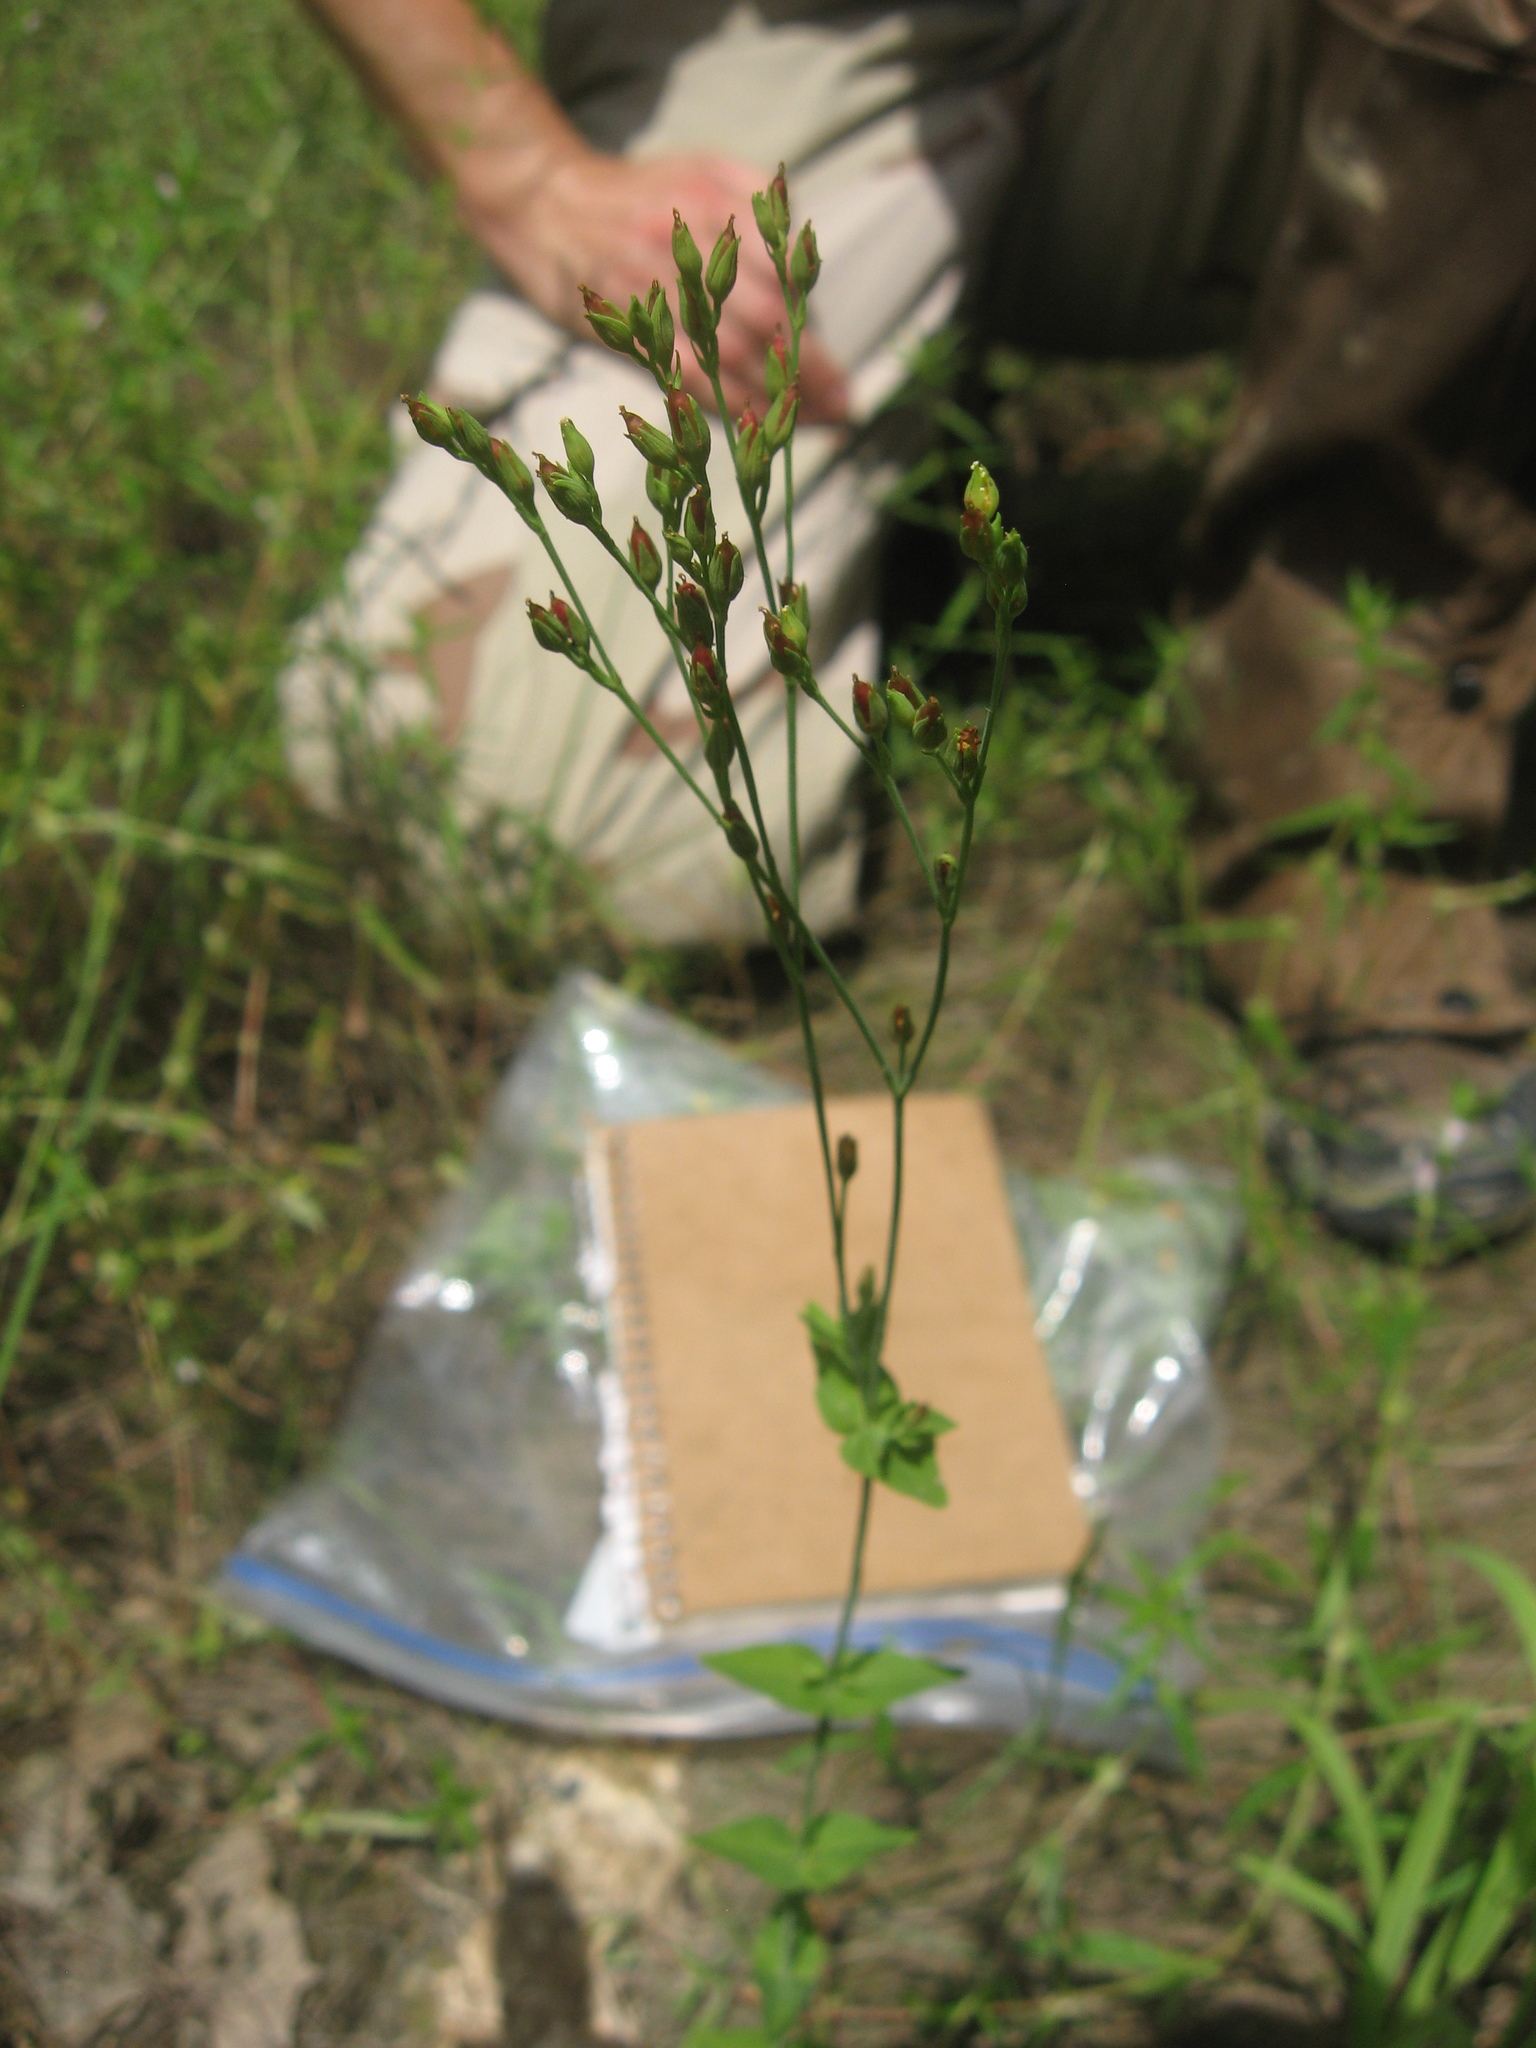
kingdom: Plantae
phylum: Tracheophyta
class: Magnoliopsida
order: Malpighiales
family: Hypericaceae
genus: Hypericum
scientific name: Hypericum gymnanthum
